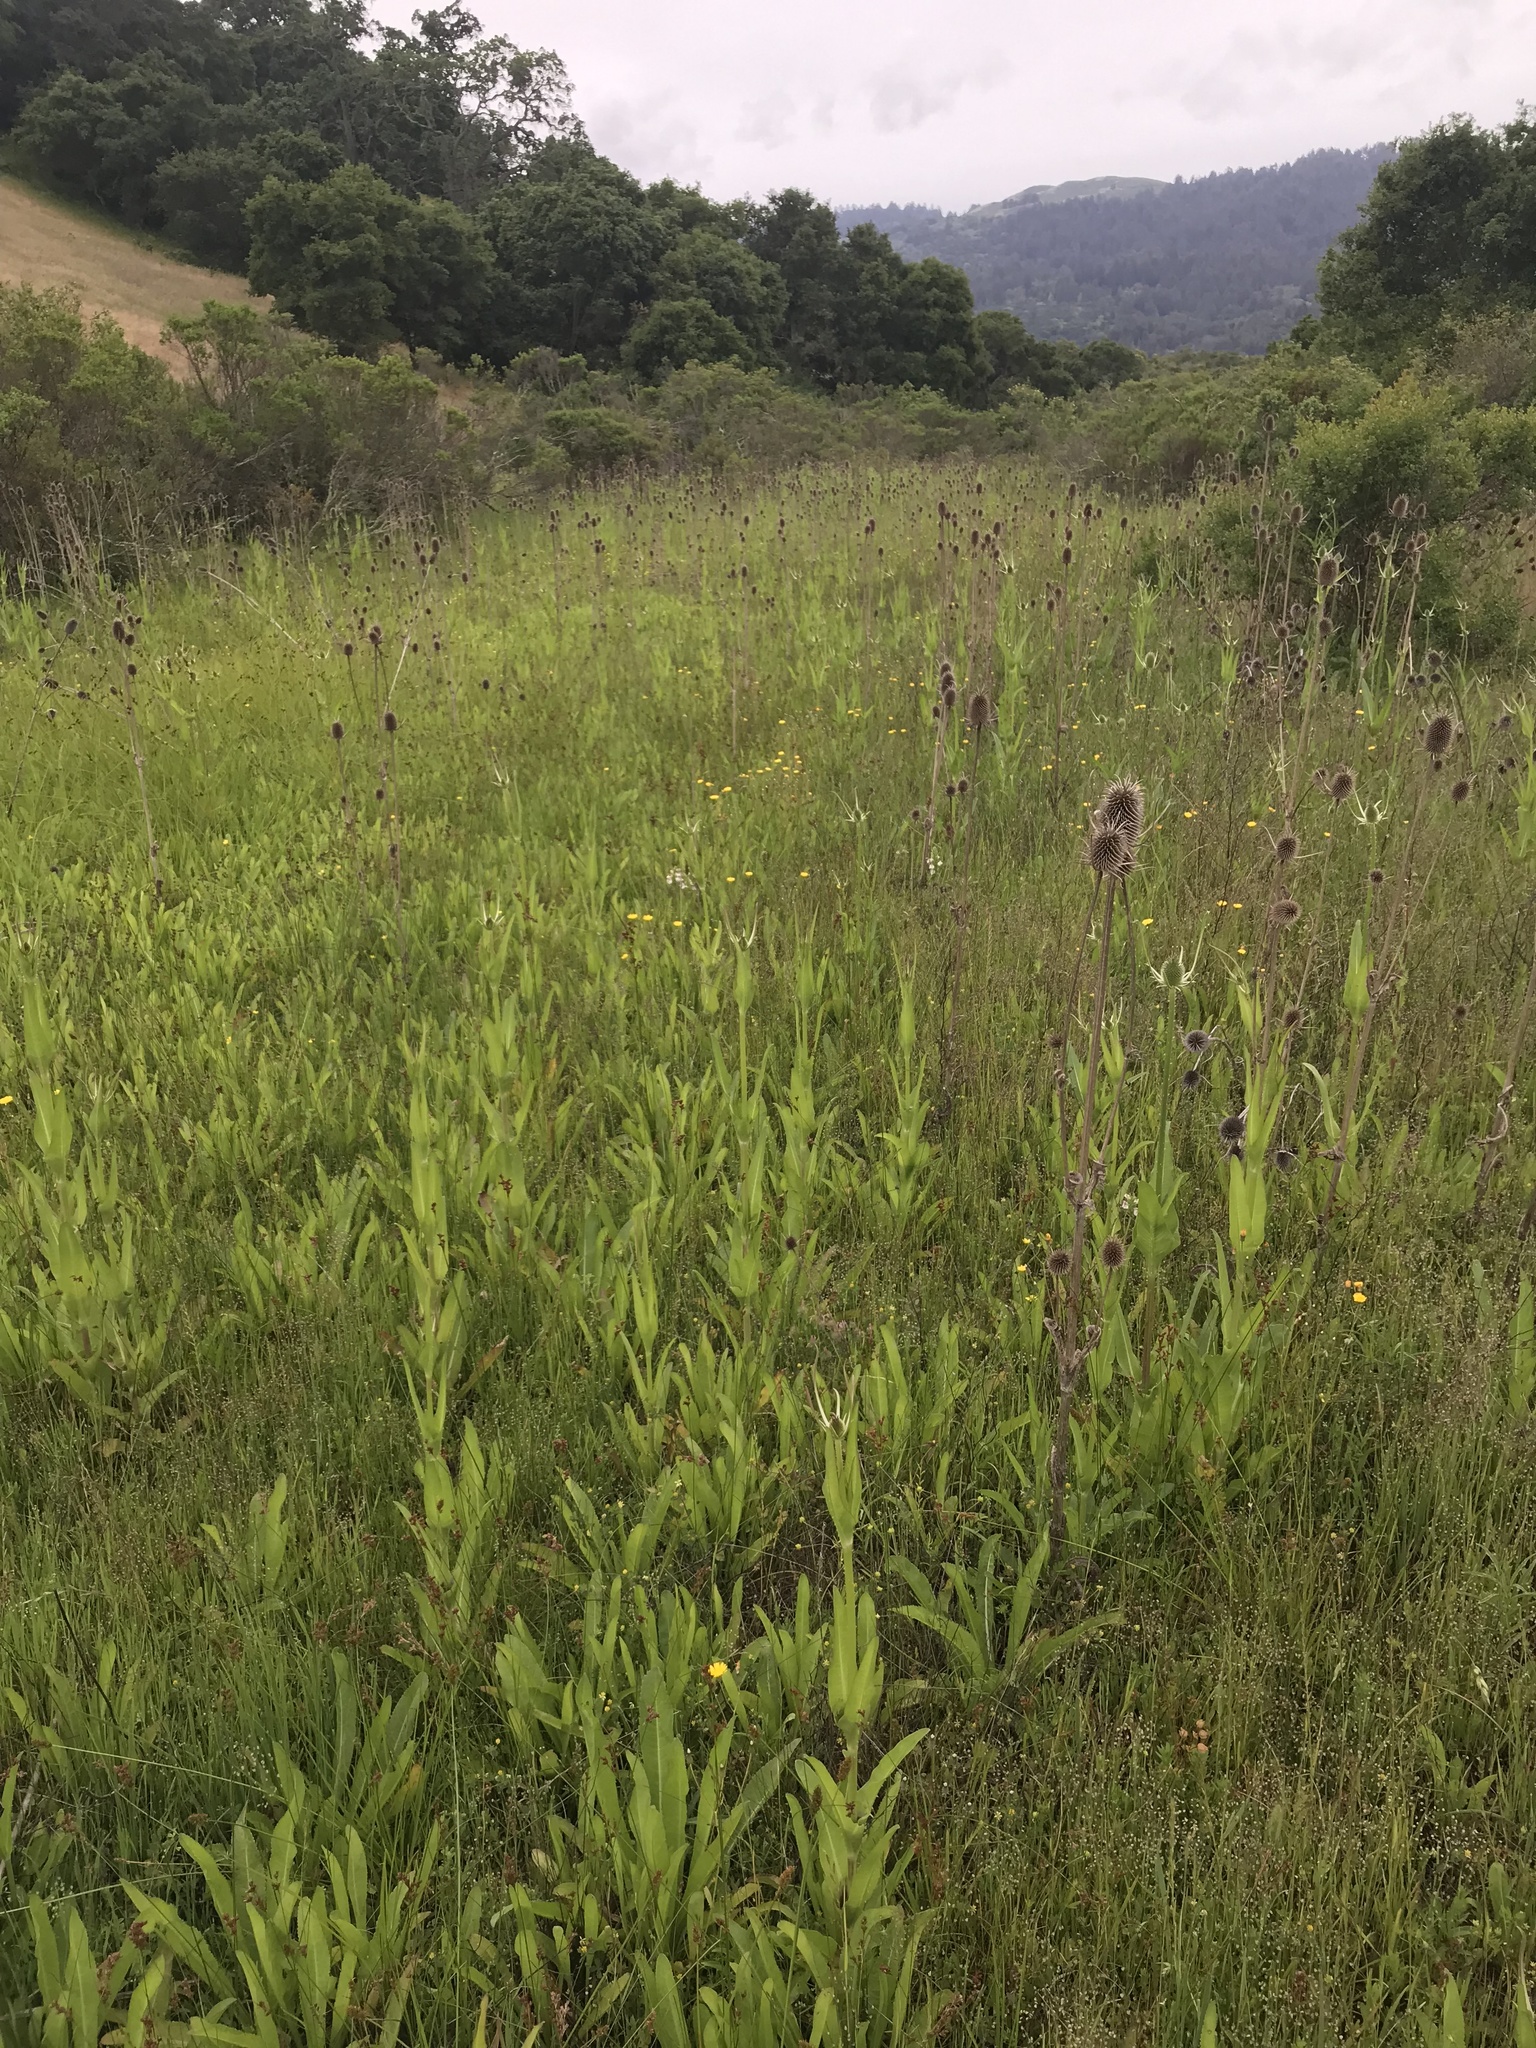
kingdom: Plantae
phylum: Tracheophyta
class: Magnoliopsida
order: Dipsacales
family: Caprifoliaceae
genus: Dipsacus
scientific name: Dipsacus sativus
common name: Fuller's teasel
